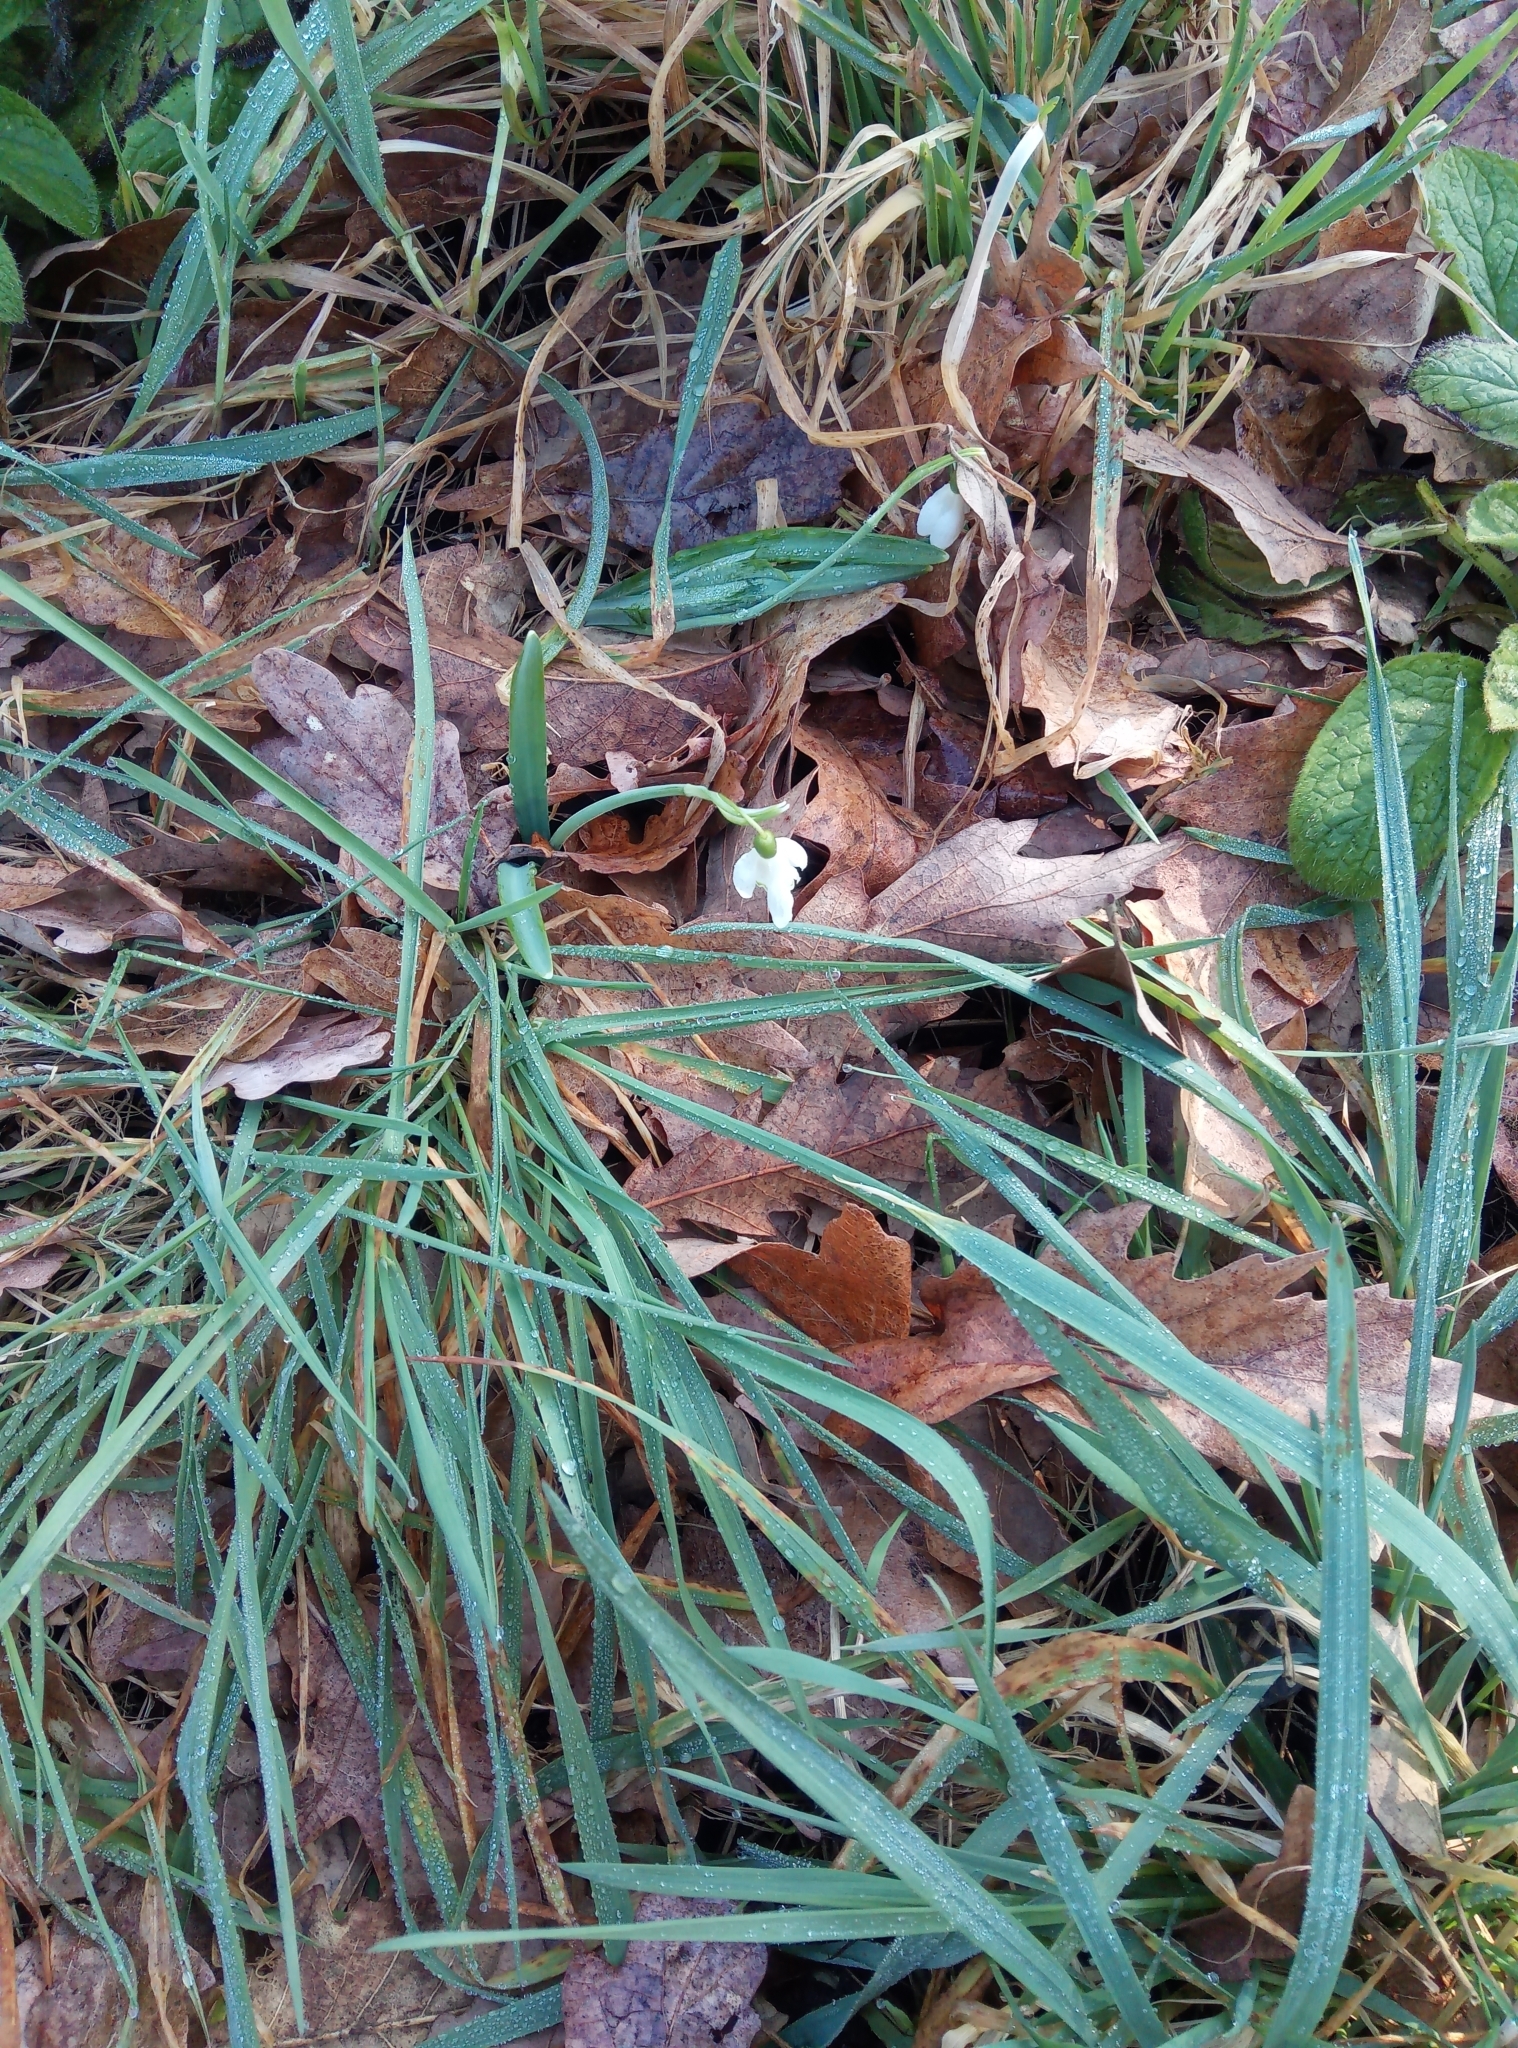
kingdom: Plantae
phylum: Tracheophyta
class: Liliopsida
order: Asparagales
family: Amaryllidaceae
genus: Galanthus
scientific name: Galanthus nivalis
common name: Snowdrop
